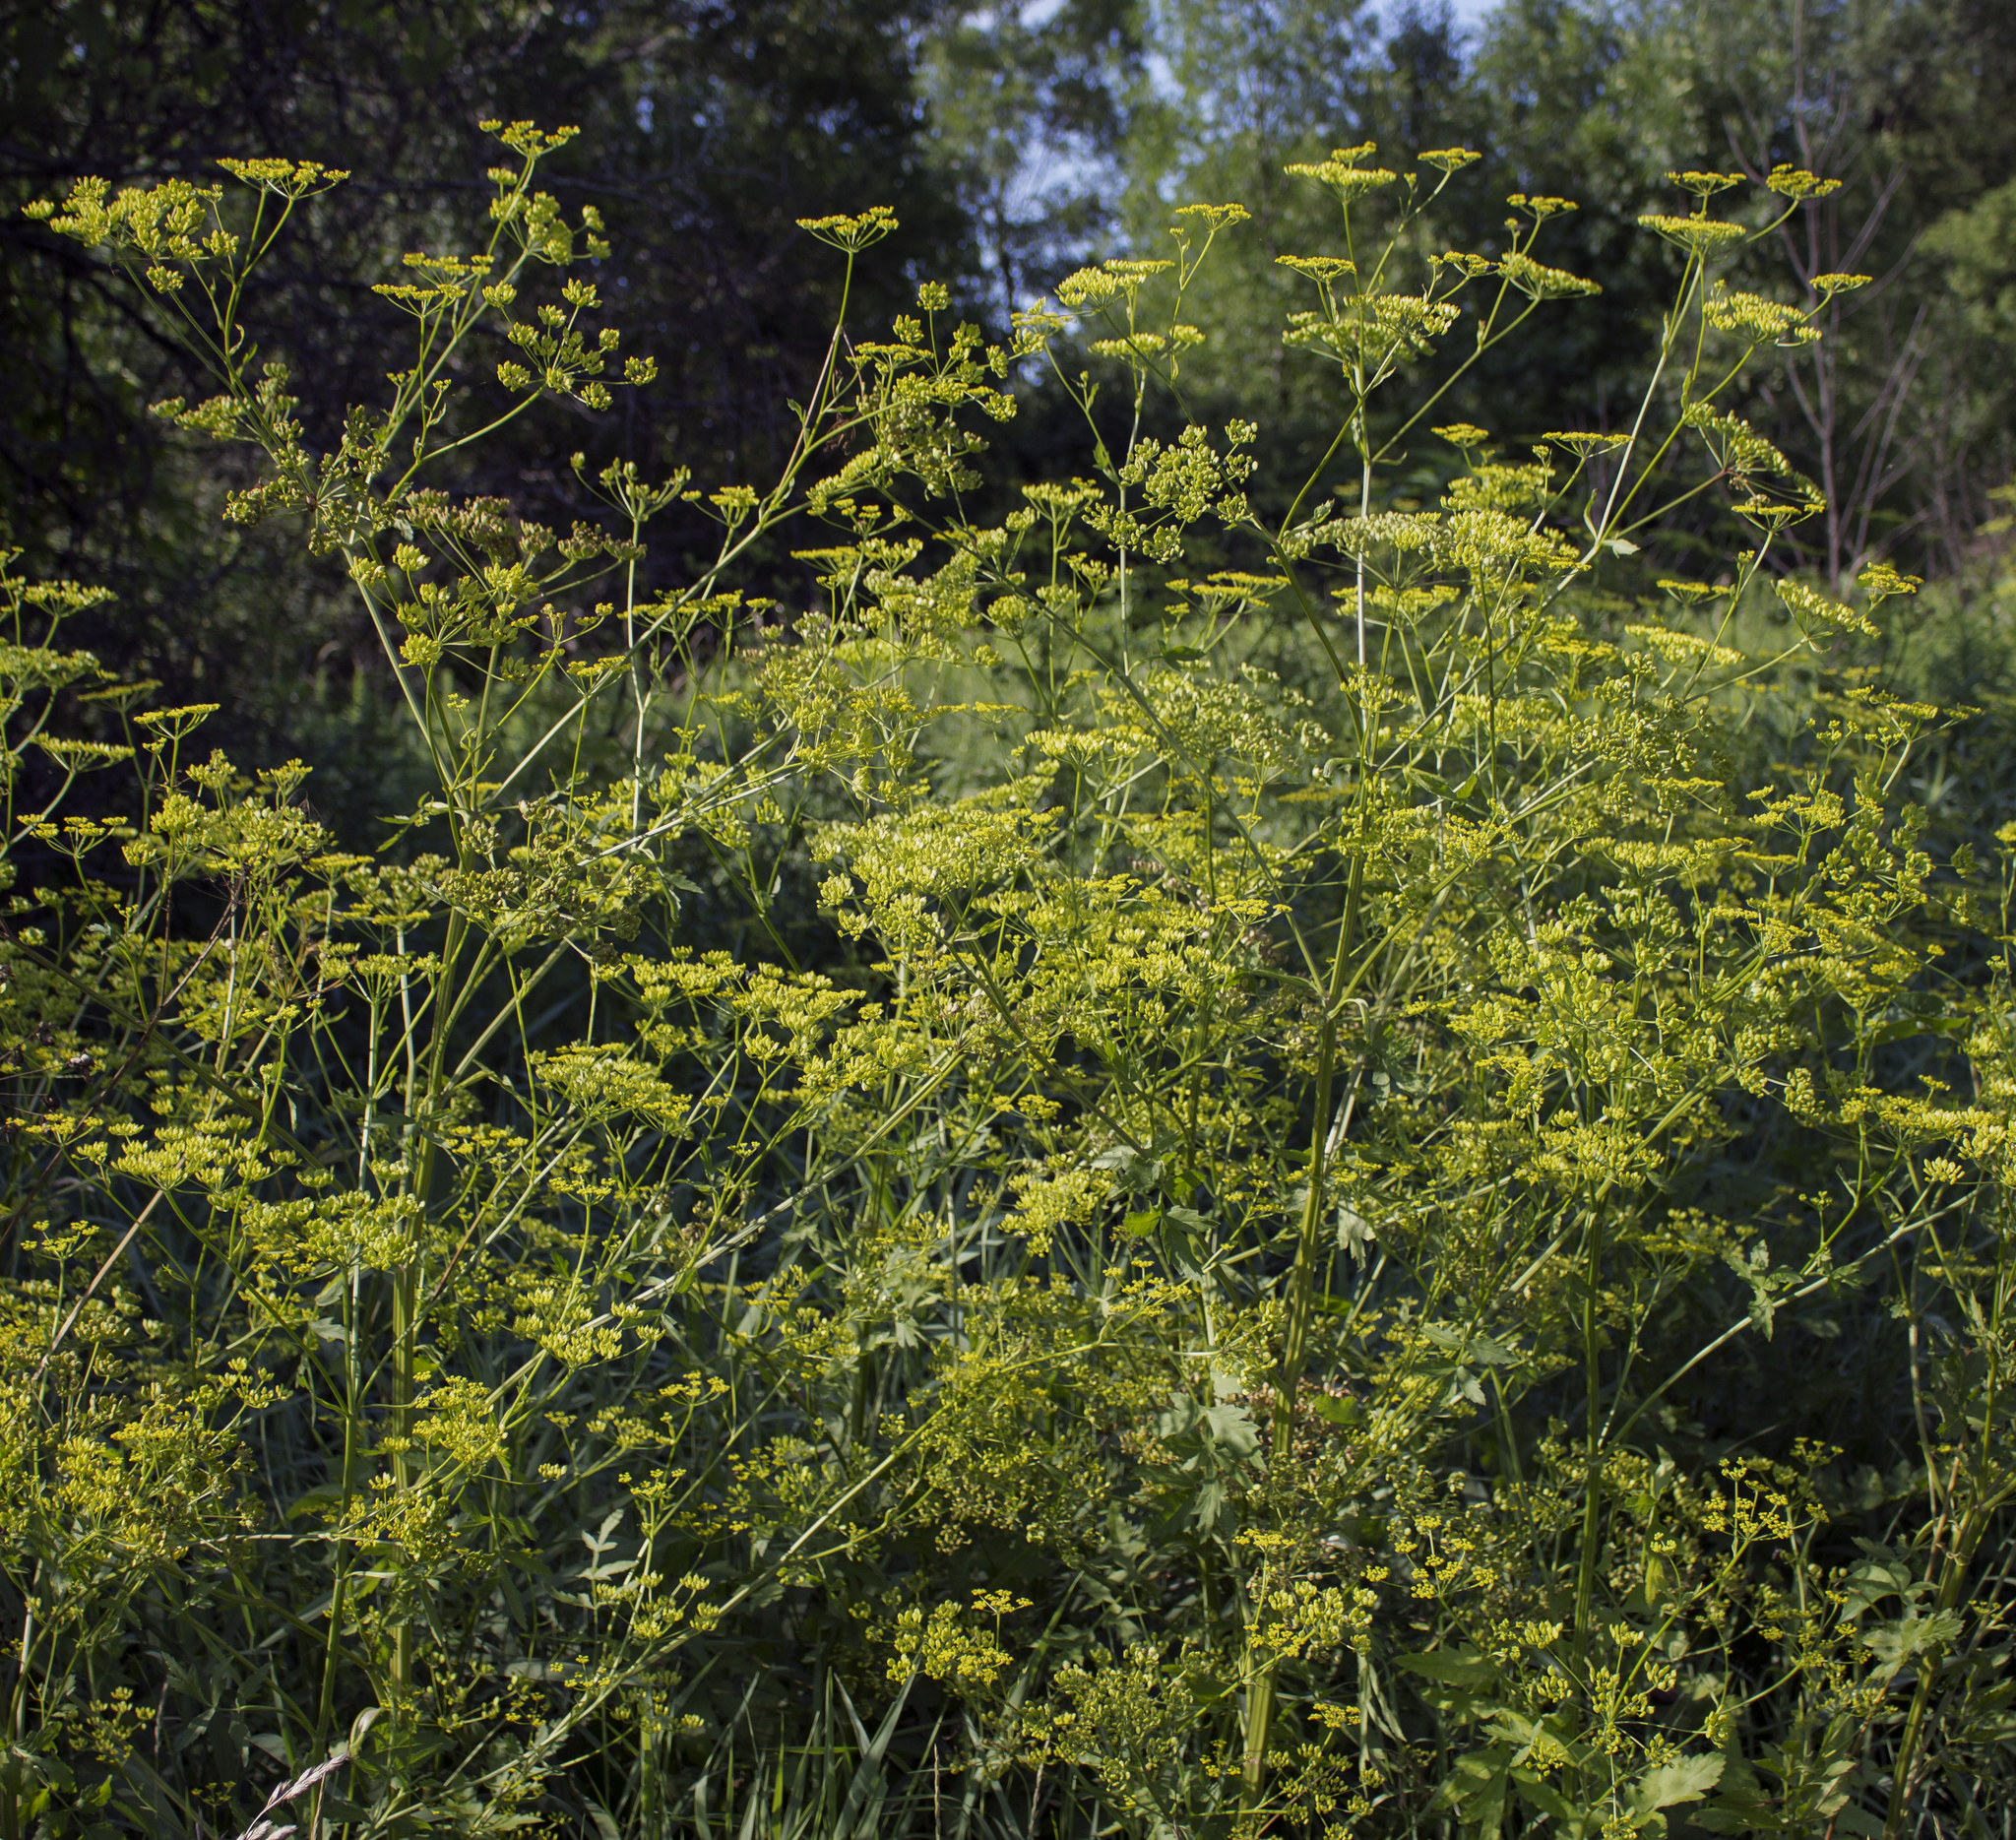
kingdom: Plantae
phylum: Tracheophyta
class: Magnoliopsida
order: Apiales
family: Apiaceae
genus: Pastinaca
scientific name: Pastinaca sativa
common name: Wild parsnip
